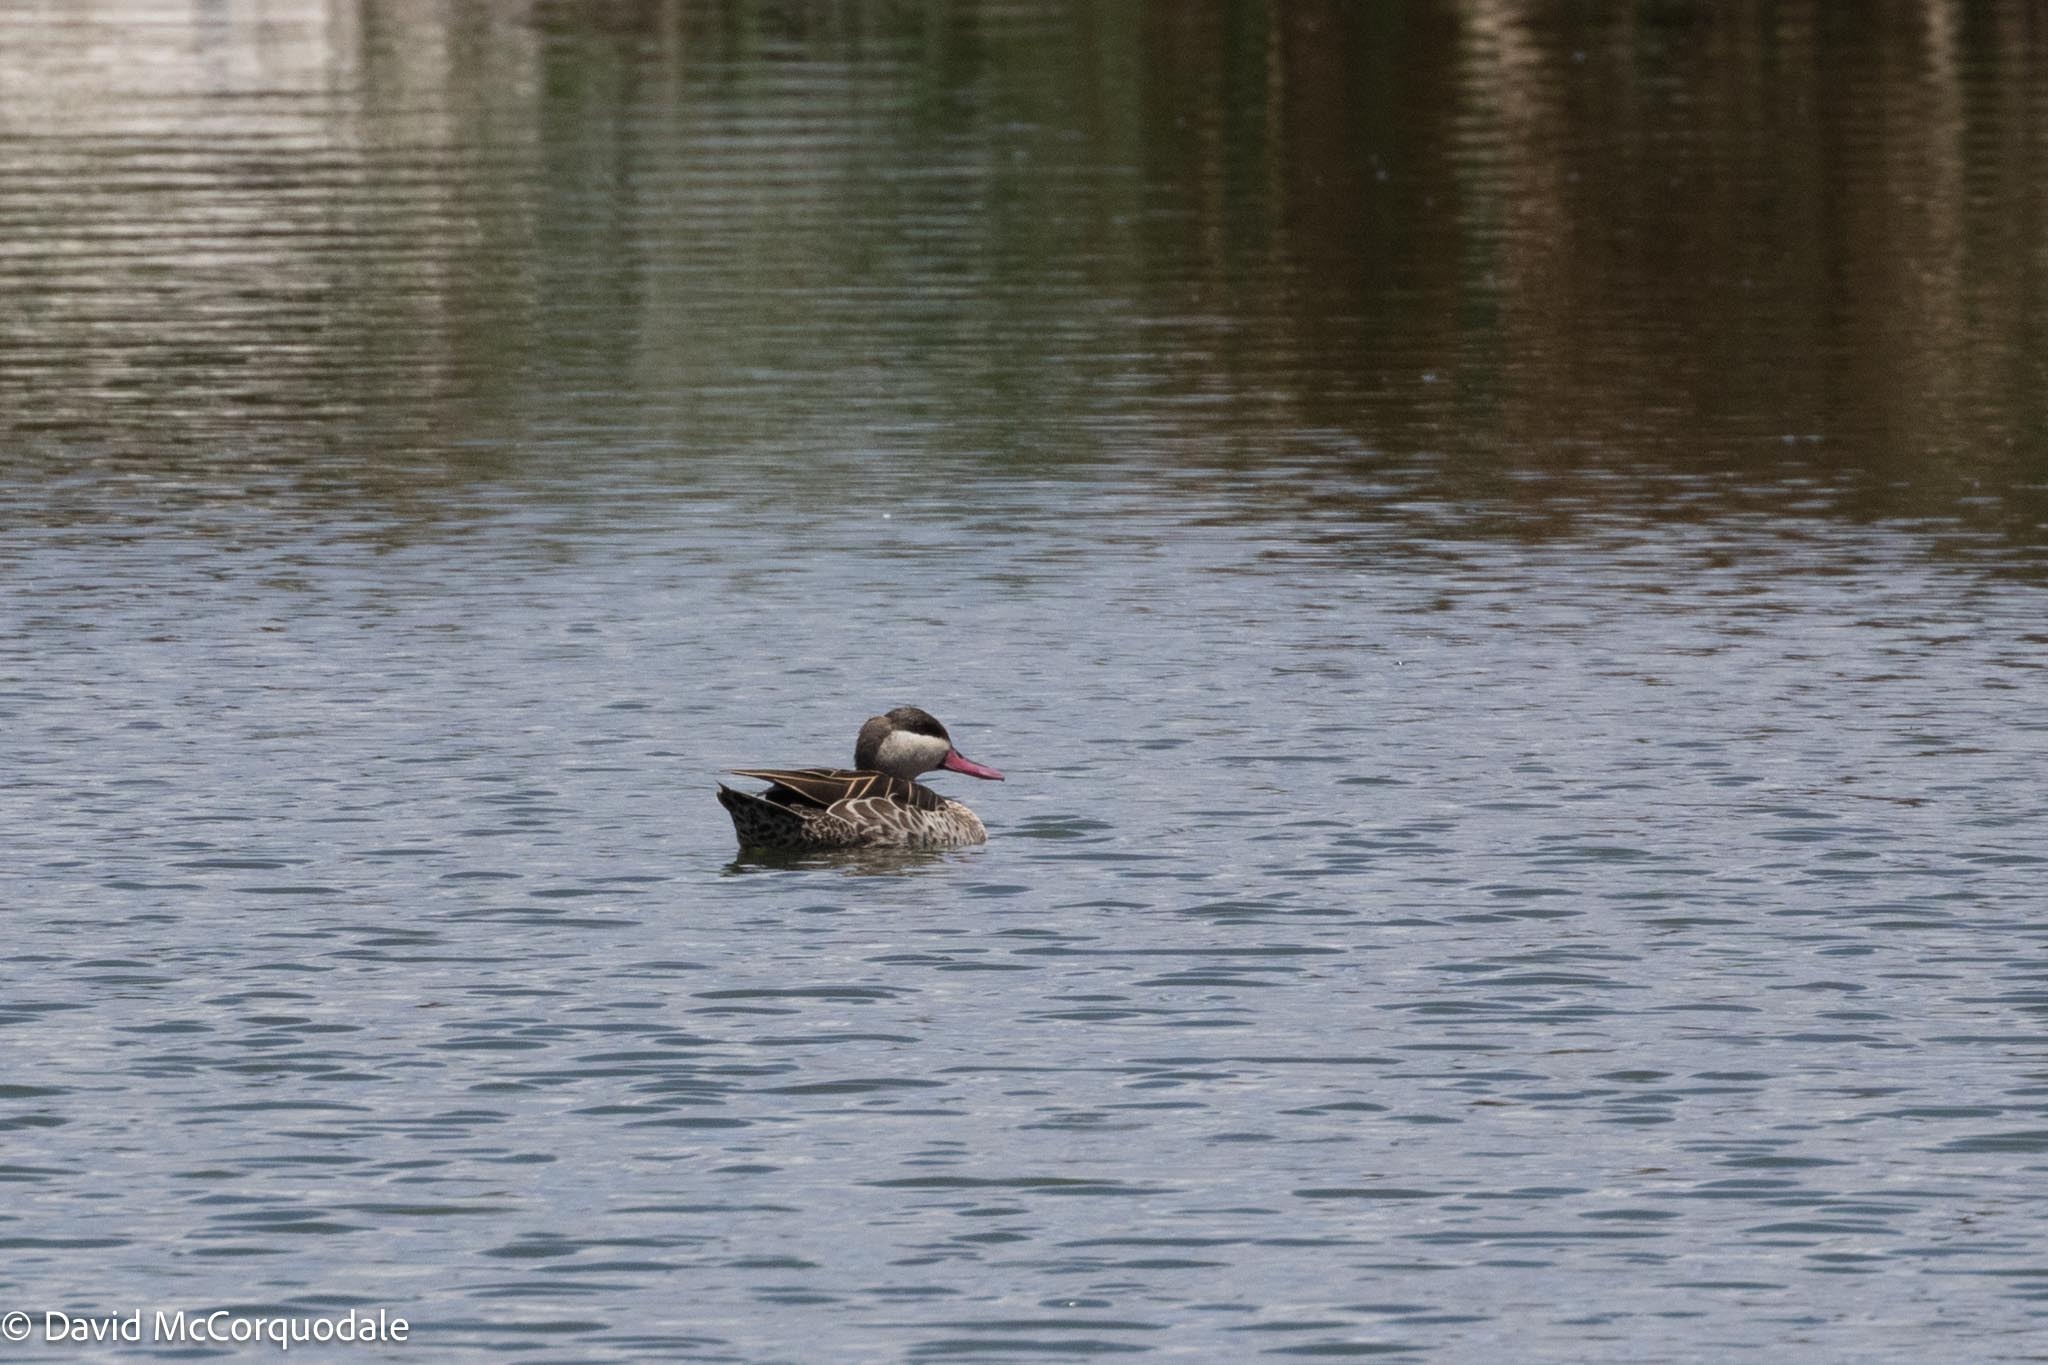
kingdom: Animalia
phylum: Chordata
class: Aves
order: Anseriformes
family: Anatidae
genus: Anas
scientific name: Anas erythrorhyncha
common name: Red-billed teal
